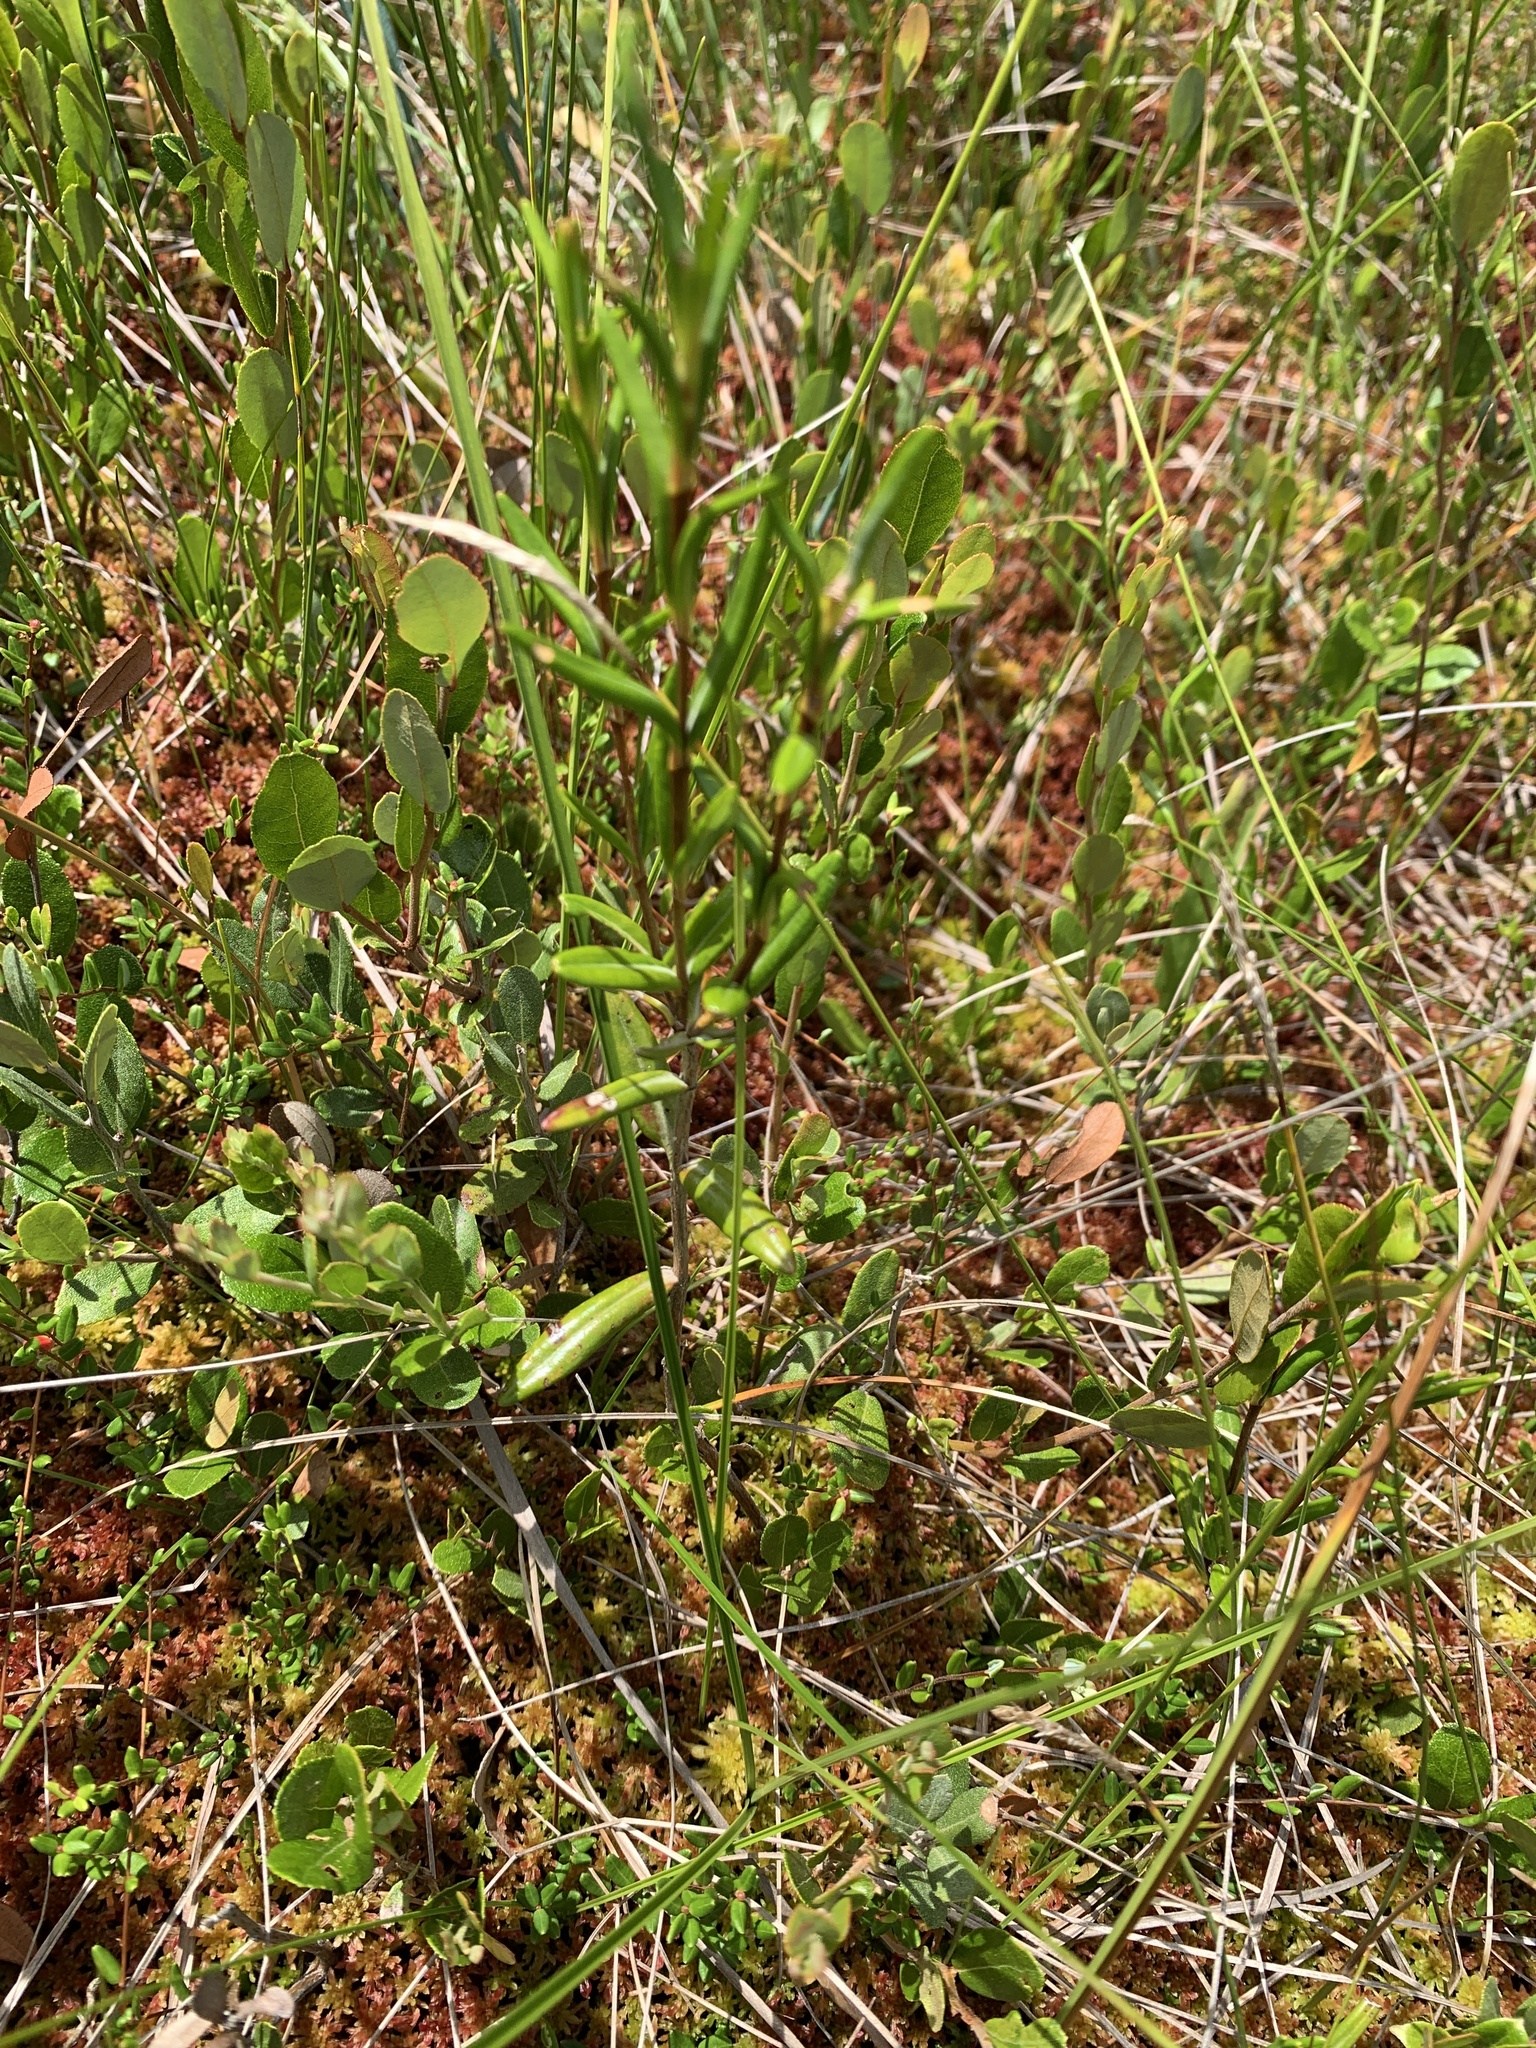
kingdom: Plantae
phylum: Tracheophyta
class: Magnoliopsida
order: Ericales
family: Ericaceae
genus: Kalmia
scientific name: Kalmia polifolia
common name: Bog-laurel
